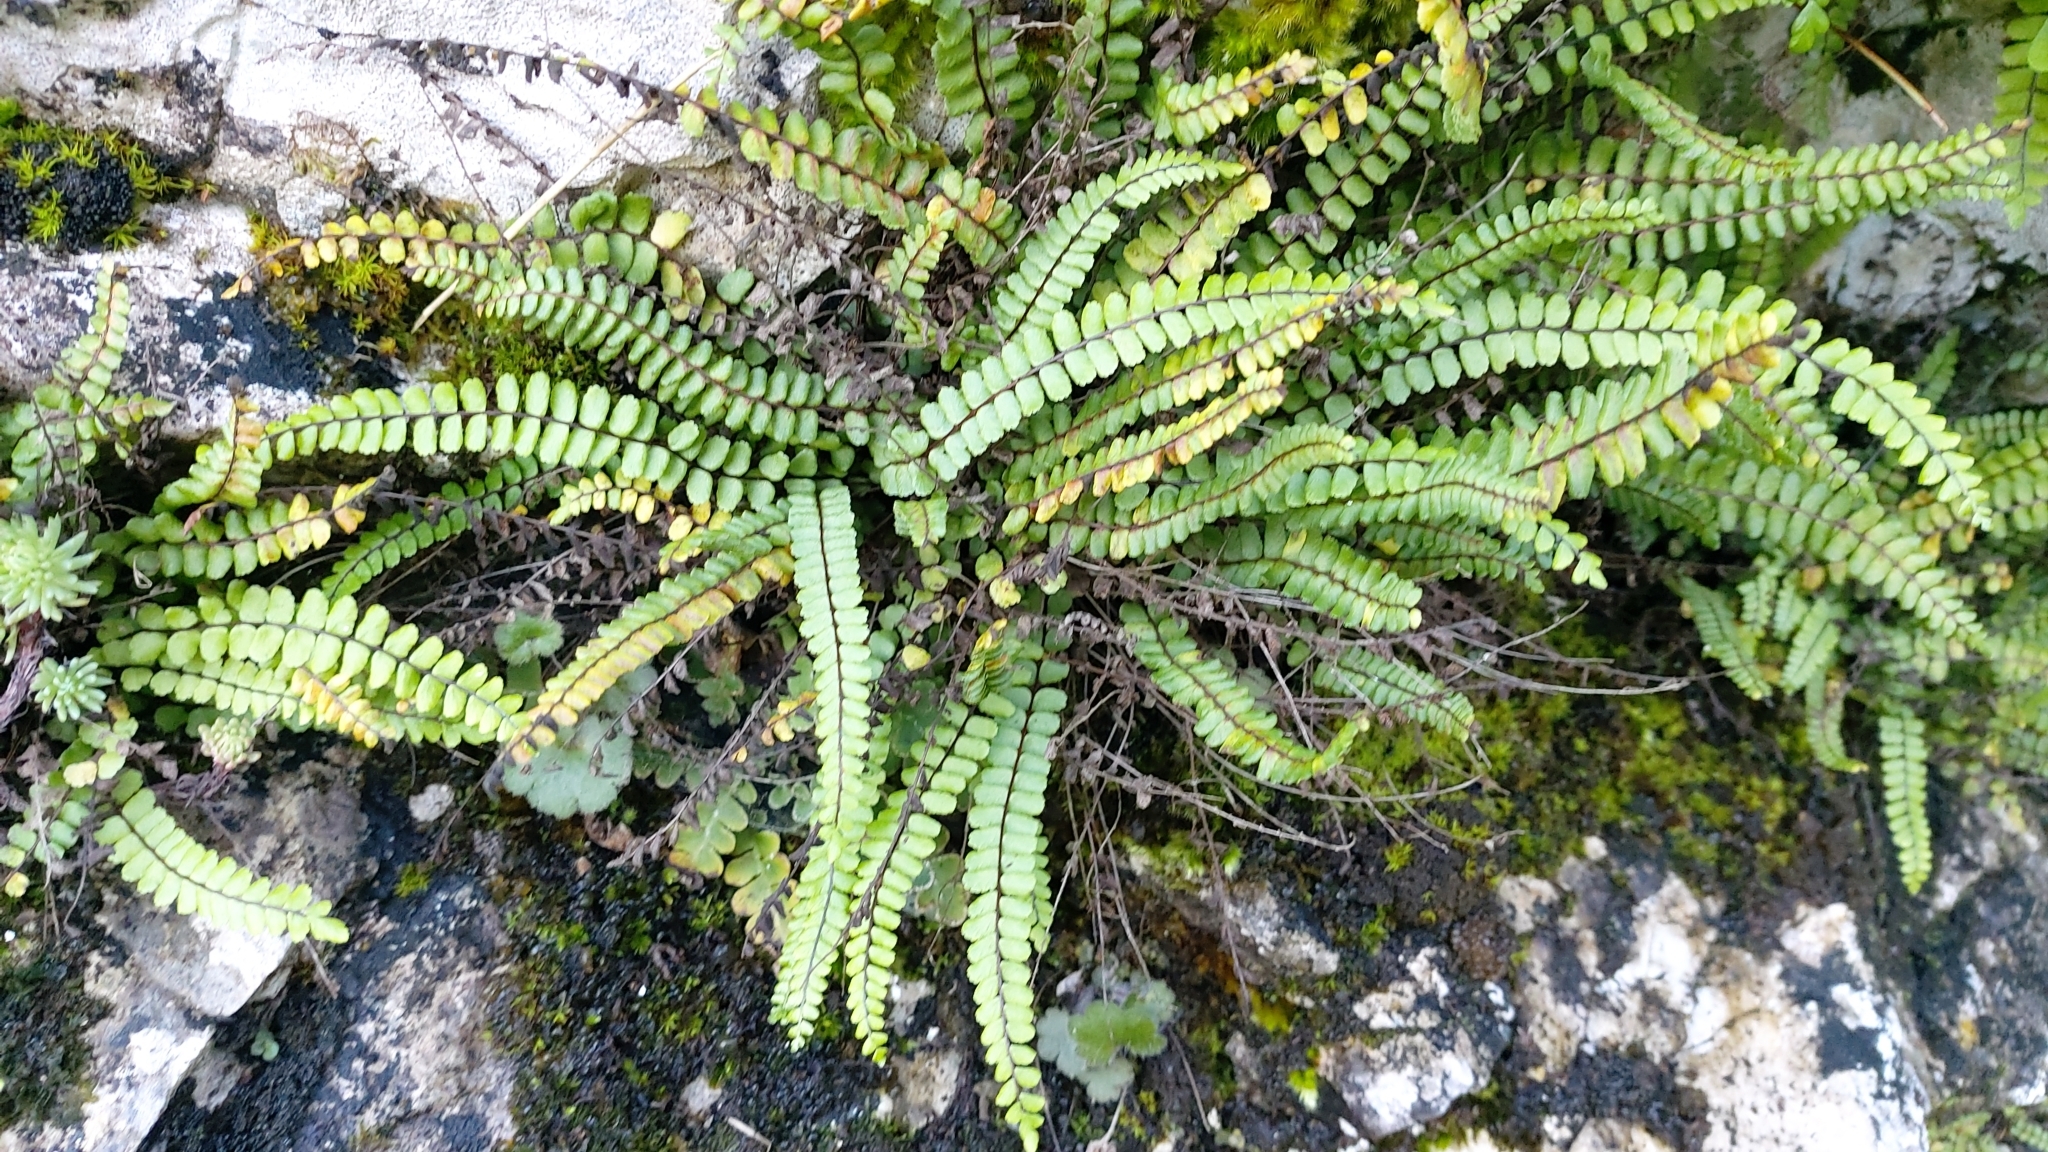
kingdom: Plantae
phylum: Tracheophyta
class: Polypodiopsida
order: Polypodiales
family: Aspleniaceae
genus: Asplenium
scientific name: Asplenium trichomanes
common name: Maidenhair spleenwort
